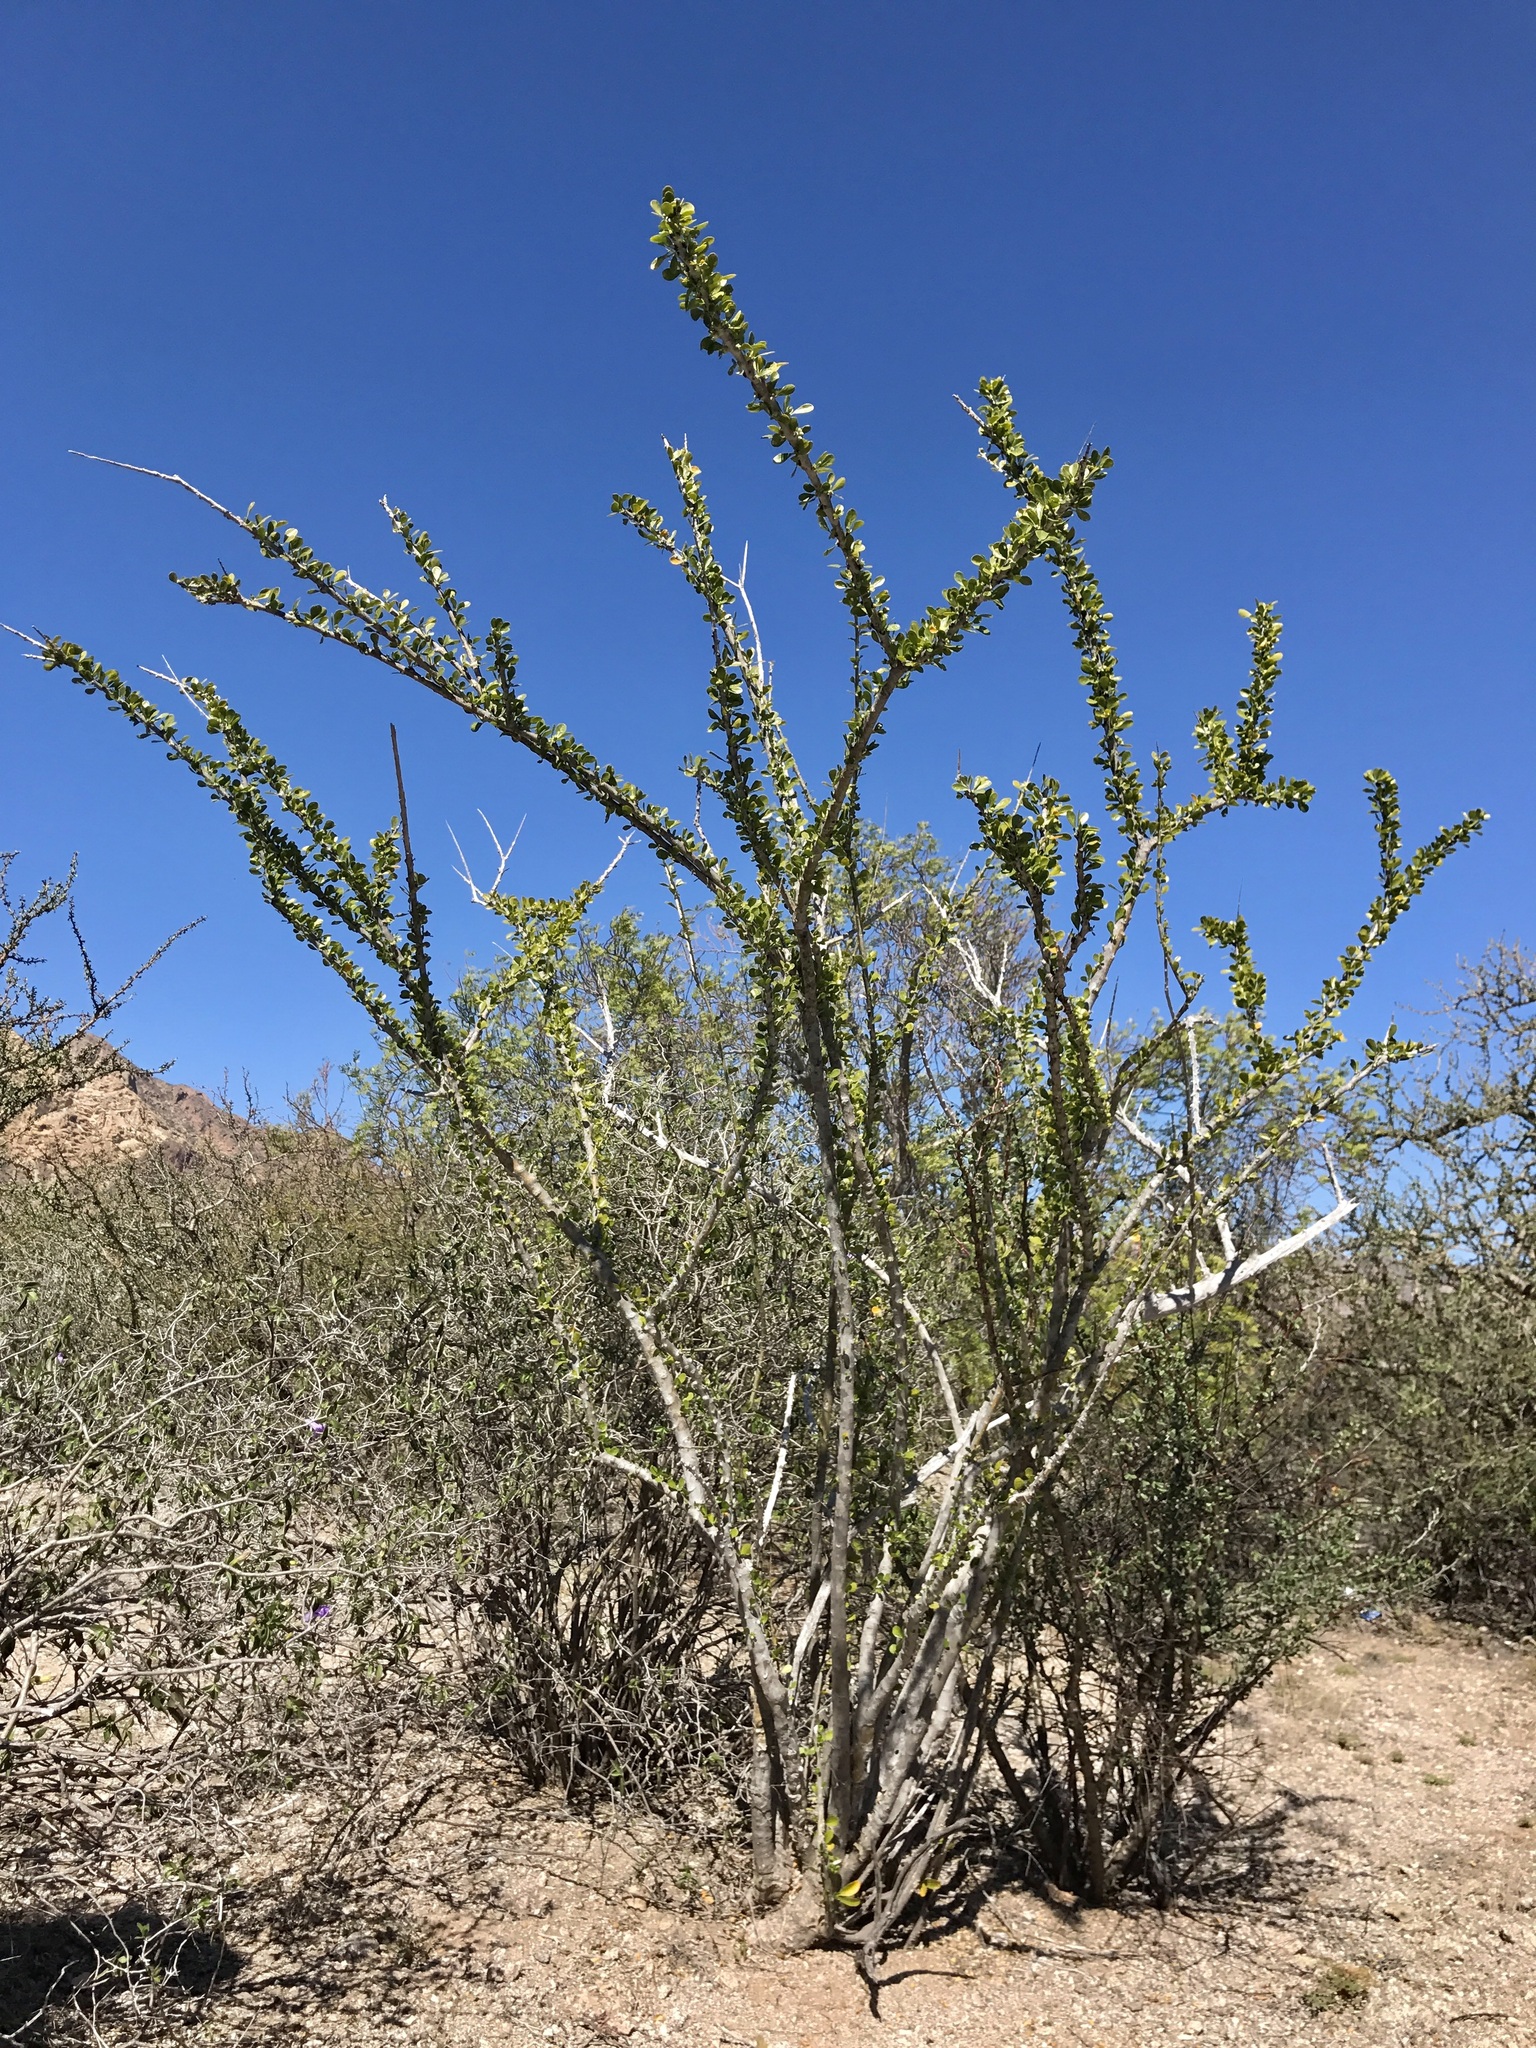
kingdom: Plantae
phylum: Tracheophyta
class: Magnoliopsida
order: Caryophyllales
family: Cactaceae
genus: Cochemiea
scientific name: Cochemiea sheldonii
